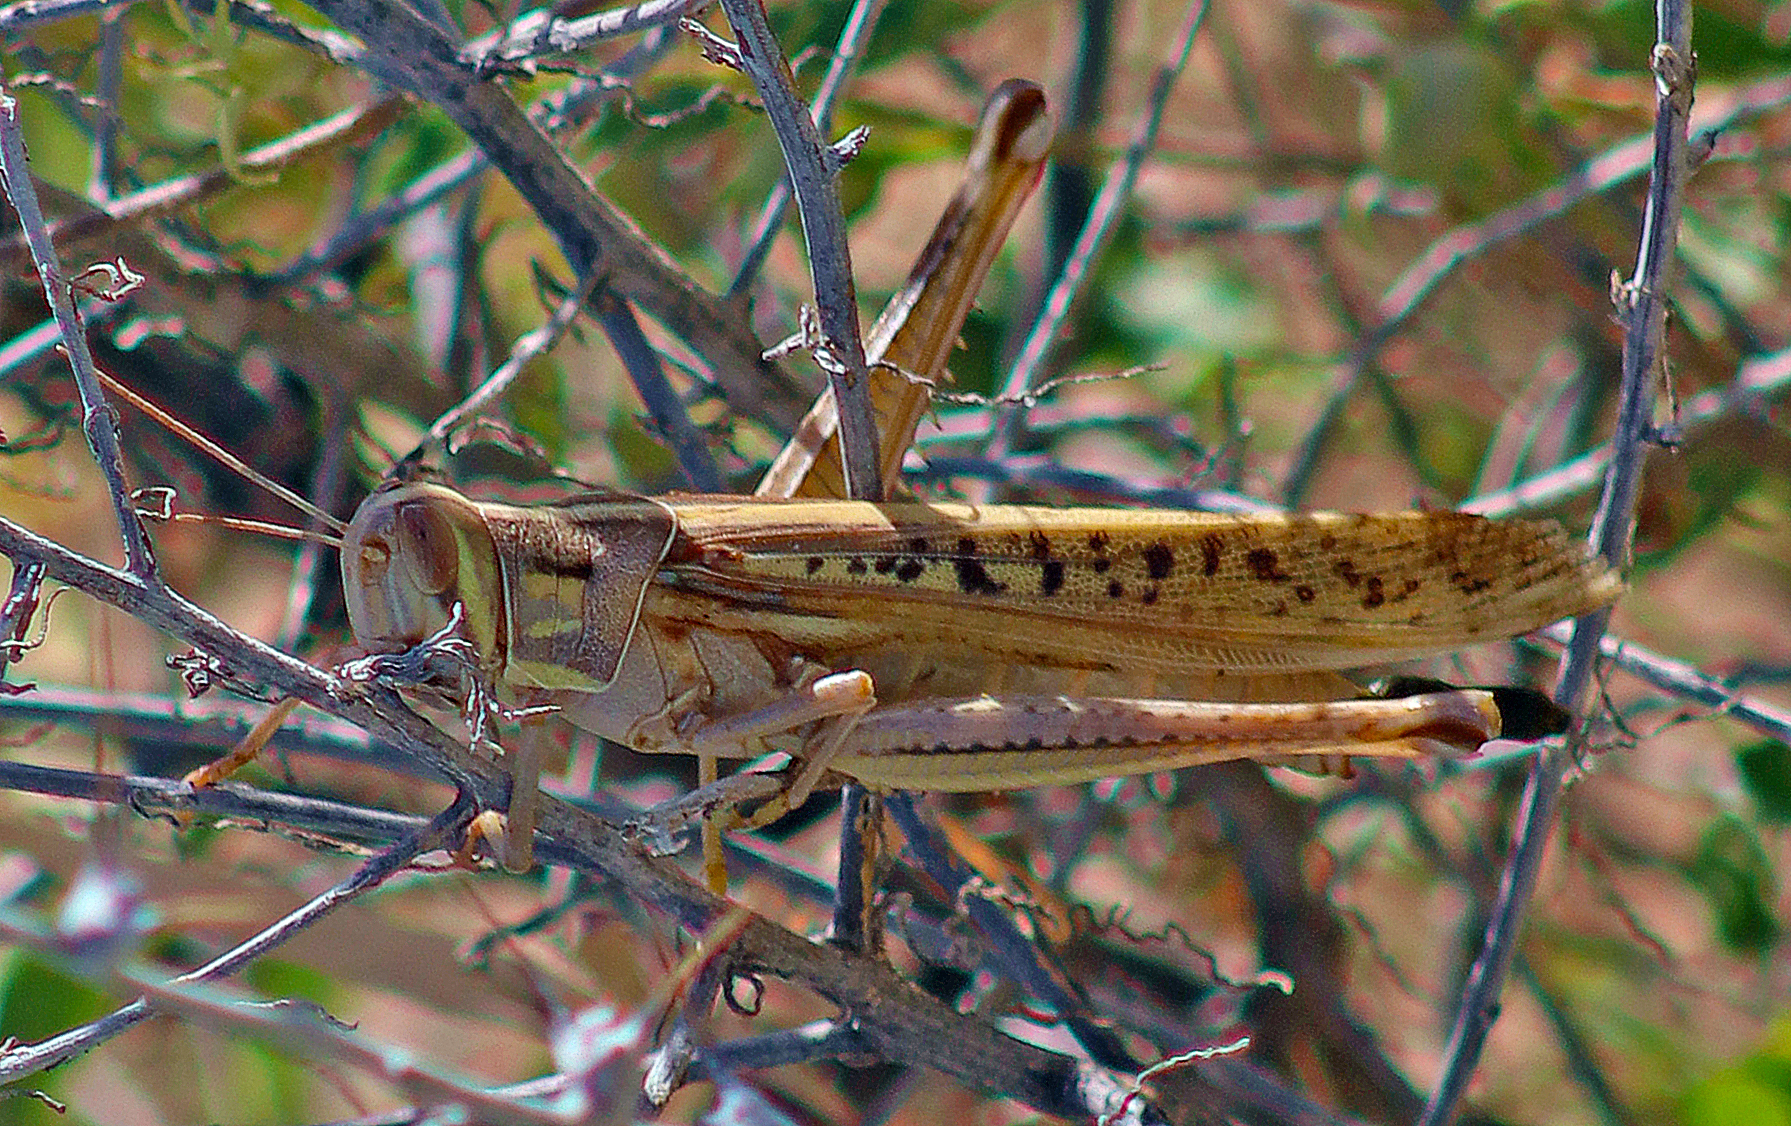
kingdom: Animalia
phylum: Arthropoda
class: Insecta
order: Orthoptera
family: Acrididae
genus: Austracris
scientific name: Austracris guttulosa
